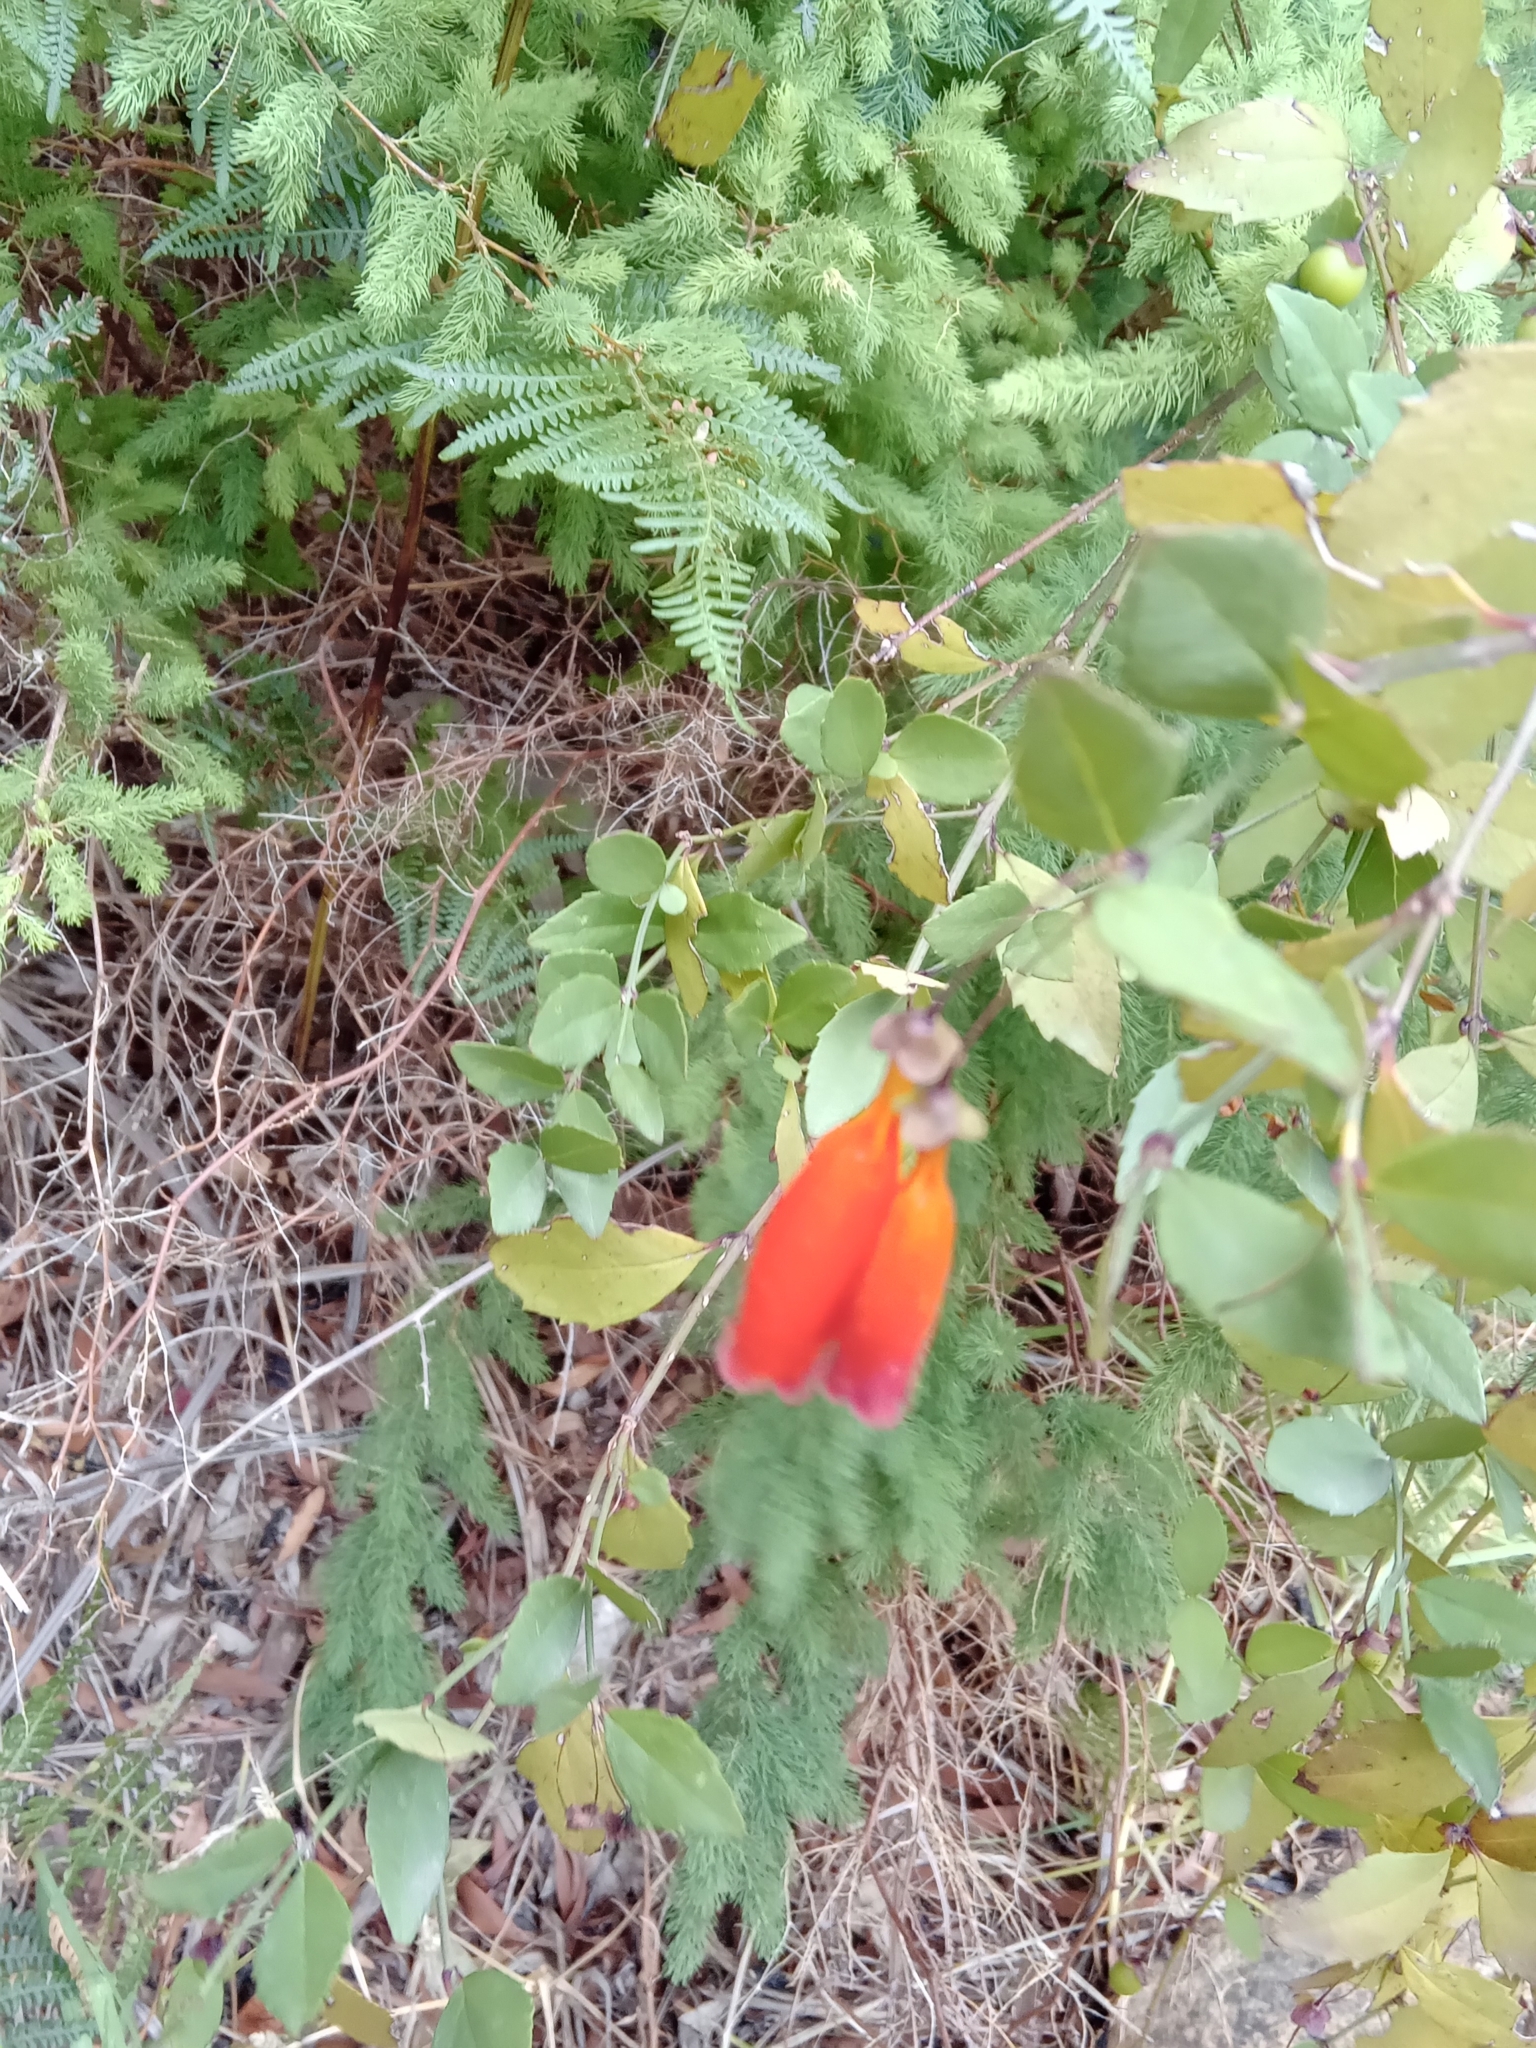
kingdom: Plantae
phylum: Tracheophyta
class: Magnoliopsida
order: Lamiales
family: Stilbaceae
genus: Halleria
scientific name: Halleria elliptica
